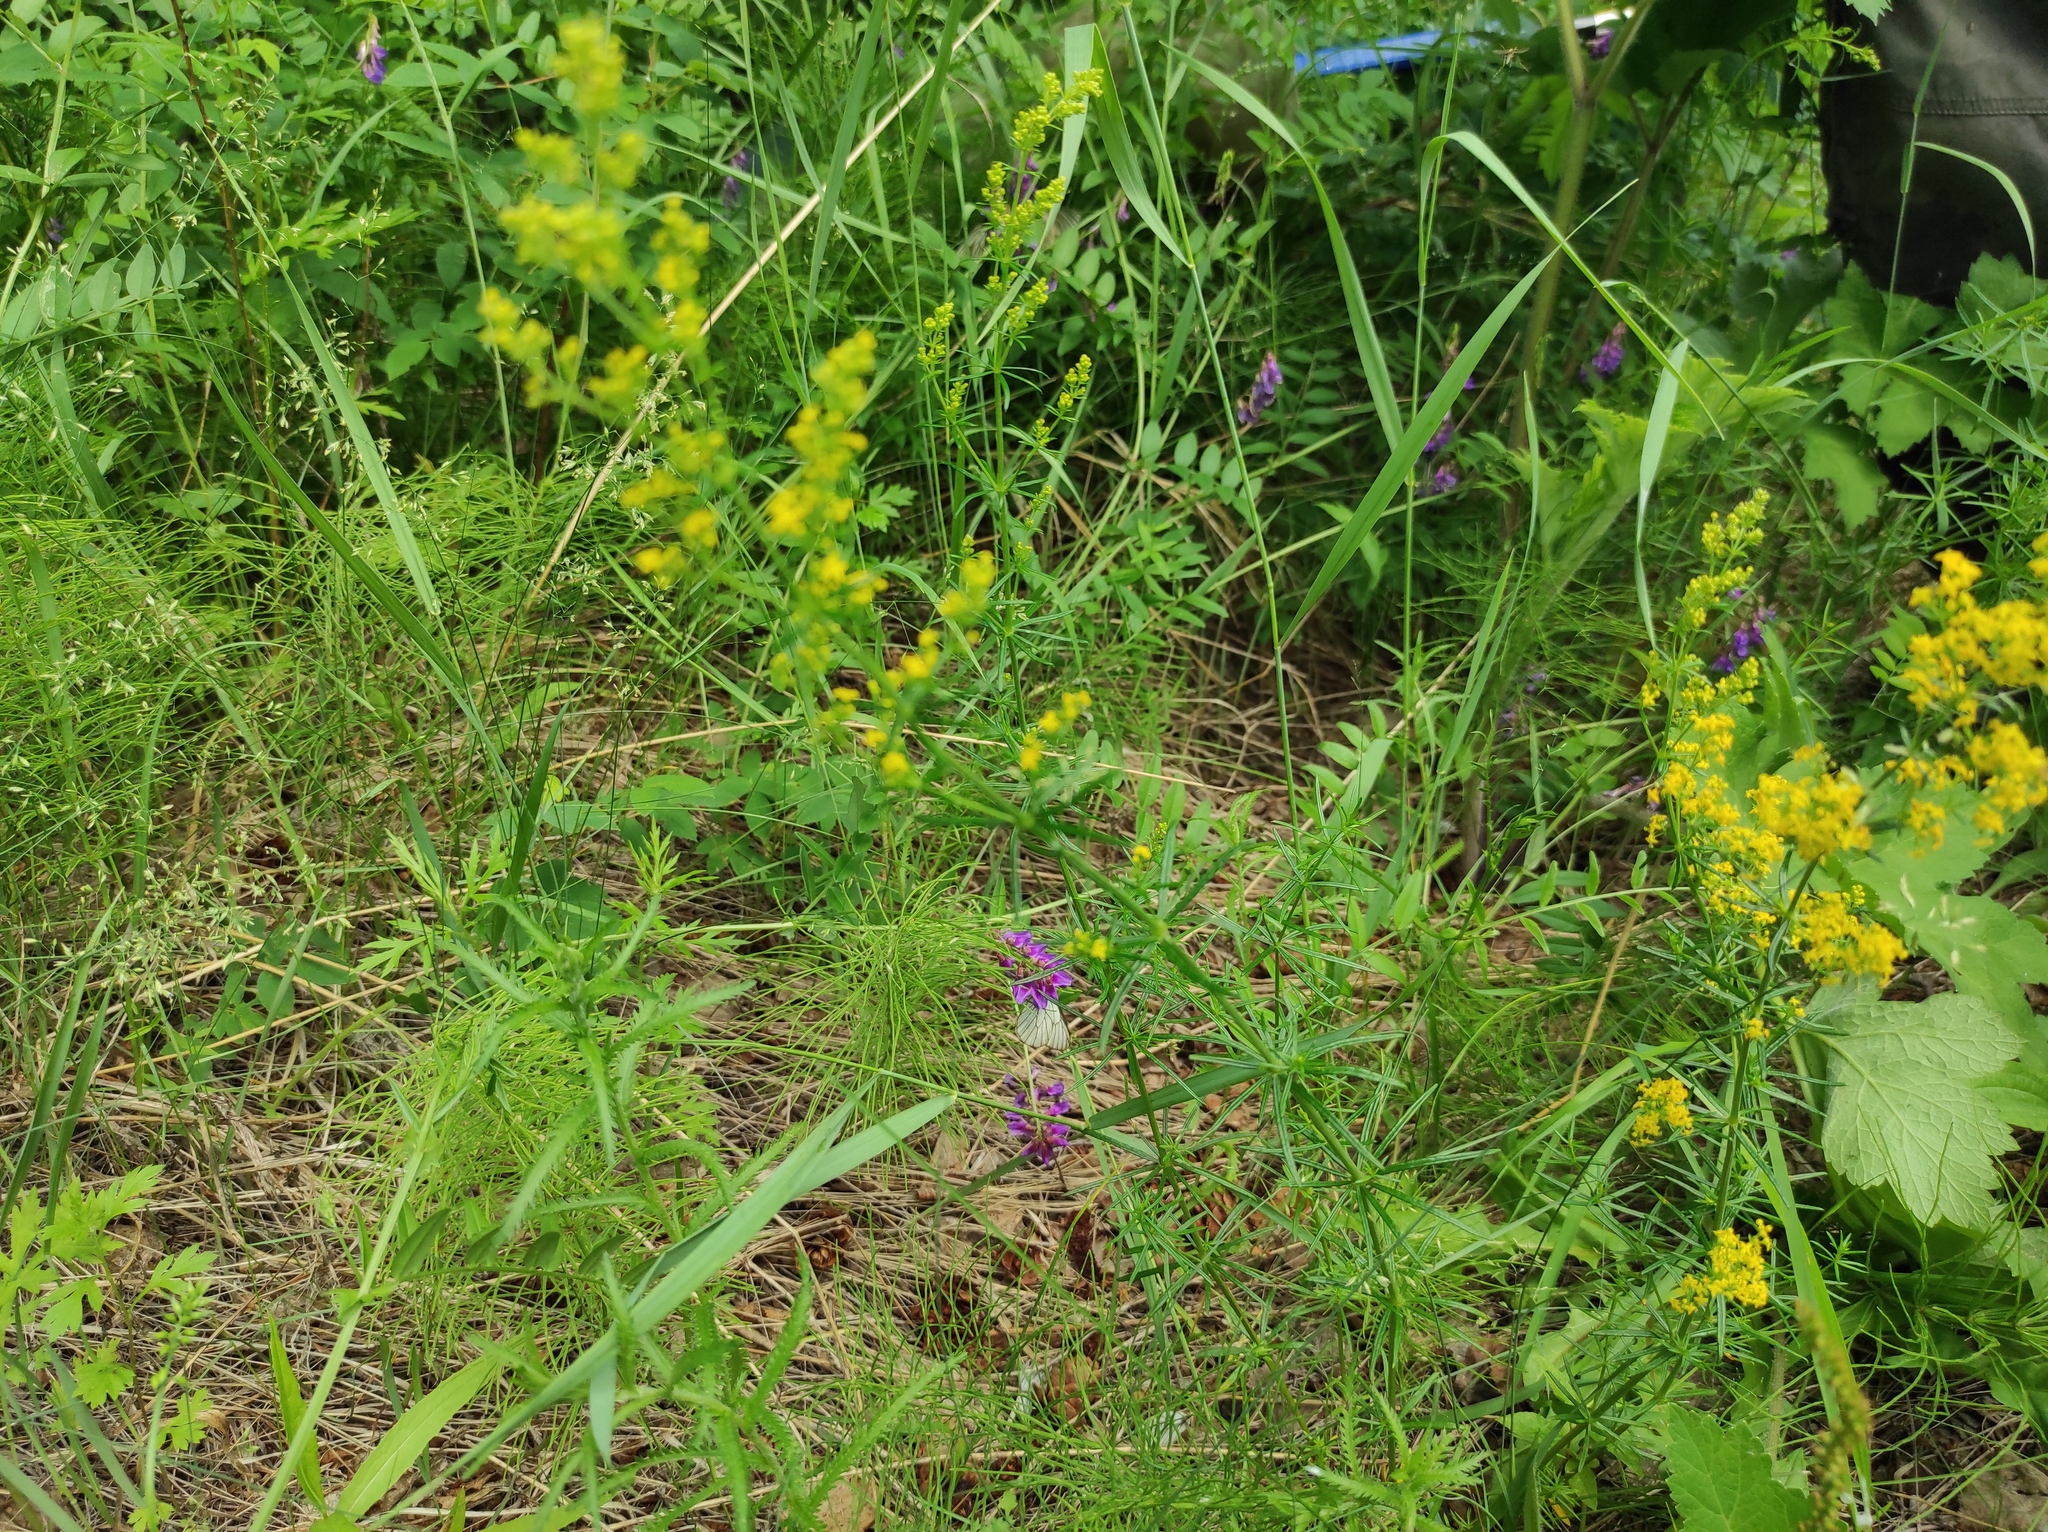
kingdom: Plantae
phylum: Tracheophyta
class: Magnoliopsida
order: Gentianales
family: Rubiaceae
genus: Galium
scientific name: Galium verum
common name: Lady's bedstraw
